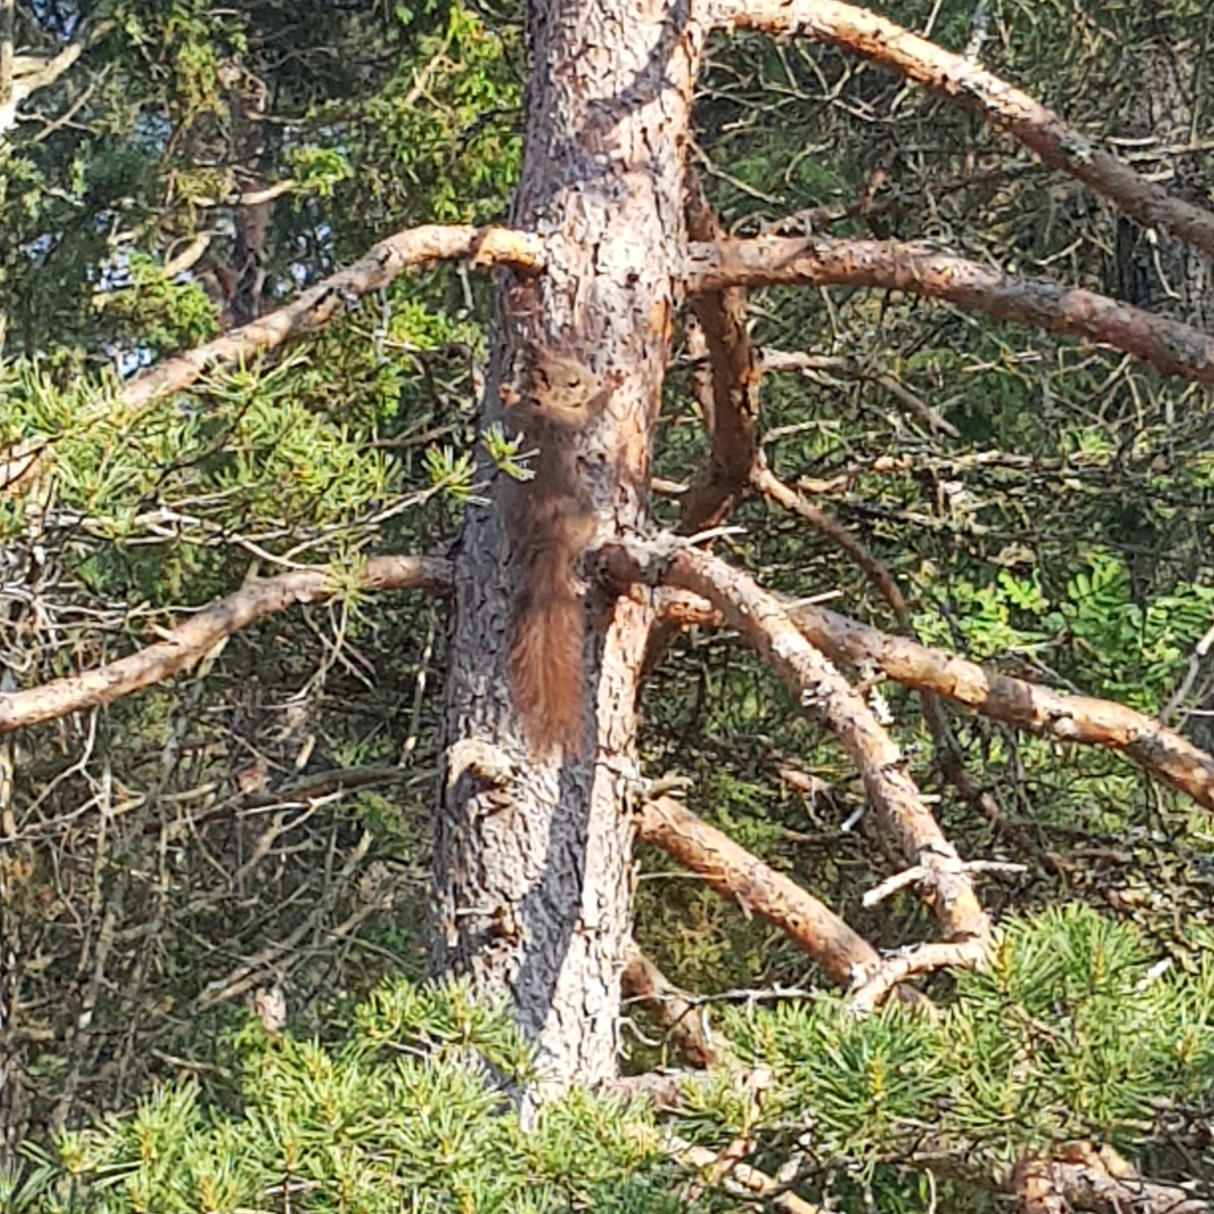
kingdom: Animalia
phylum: Chordata
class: Mammalia
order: Rodentia
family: Sciuridae
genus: Sciurus
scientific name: Sciurus vulgaris
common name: Eurasian red squirrel
